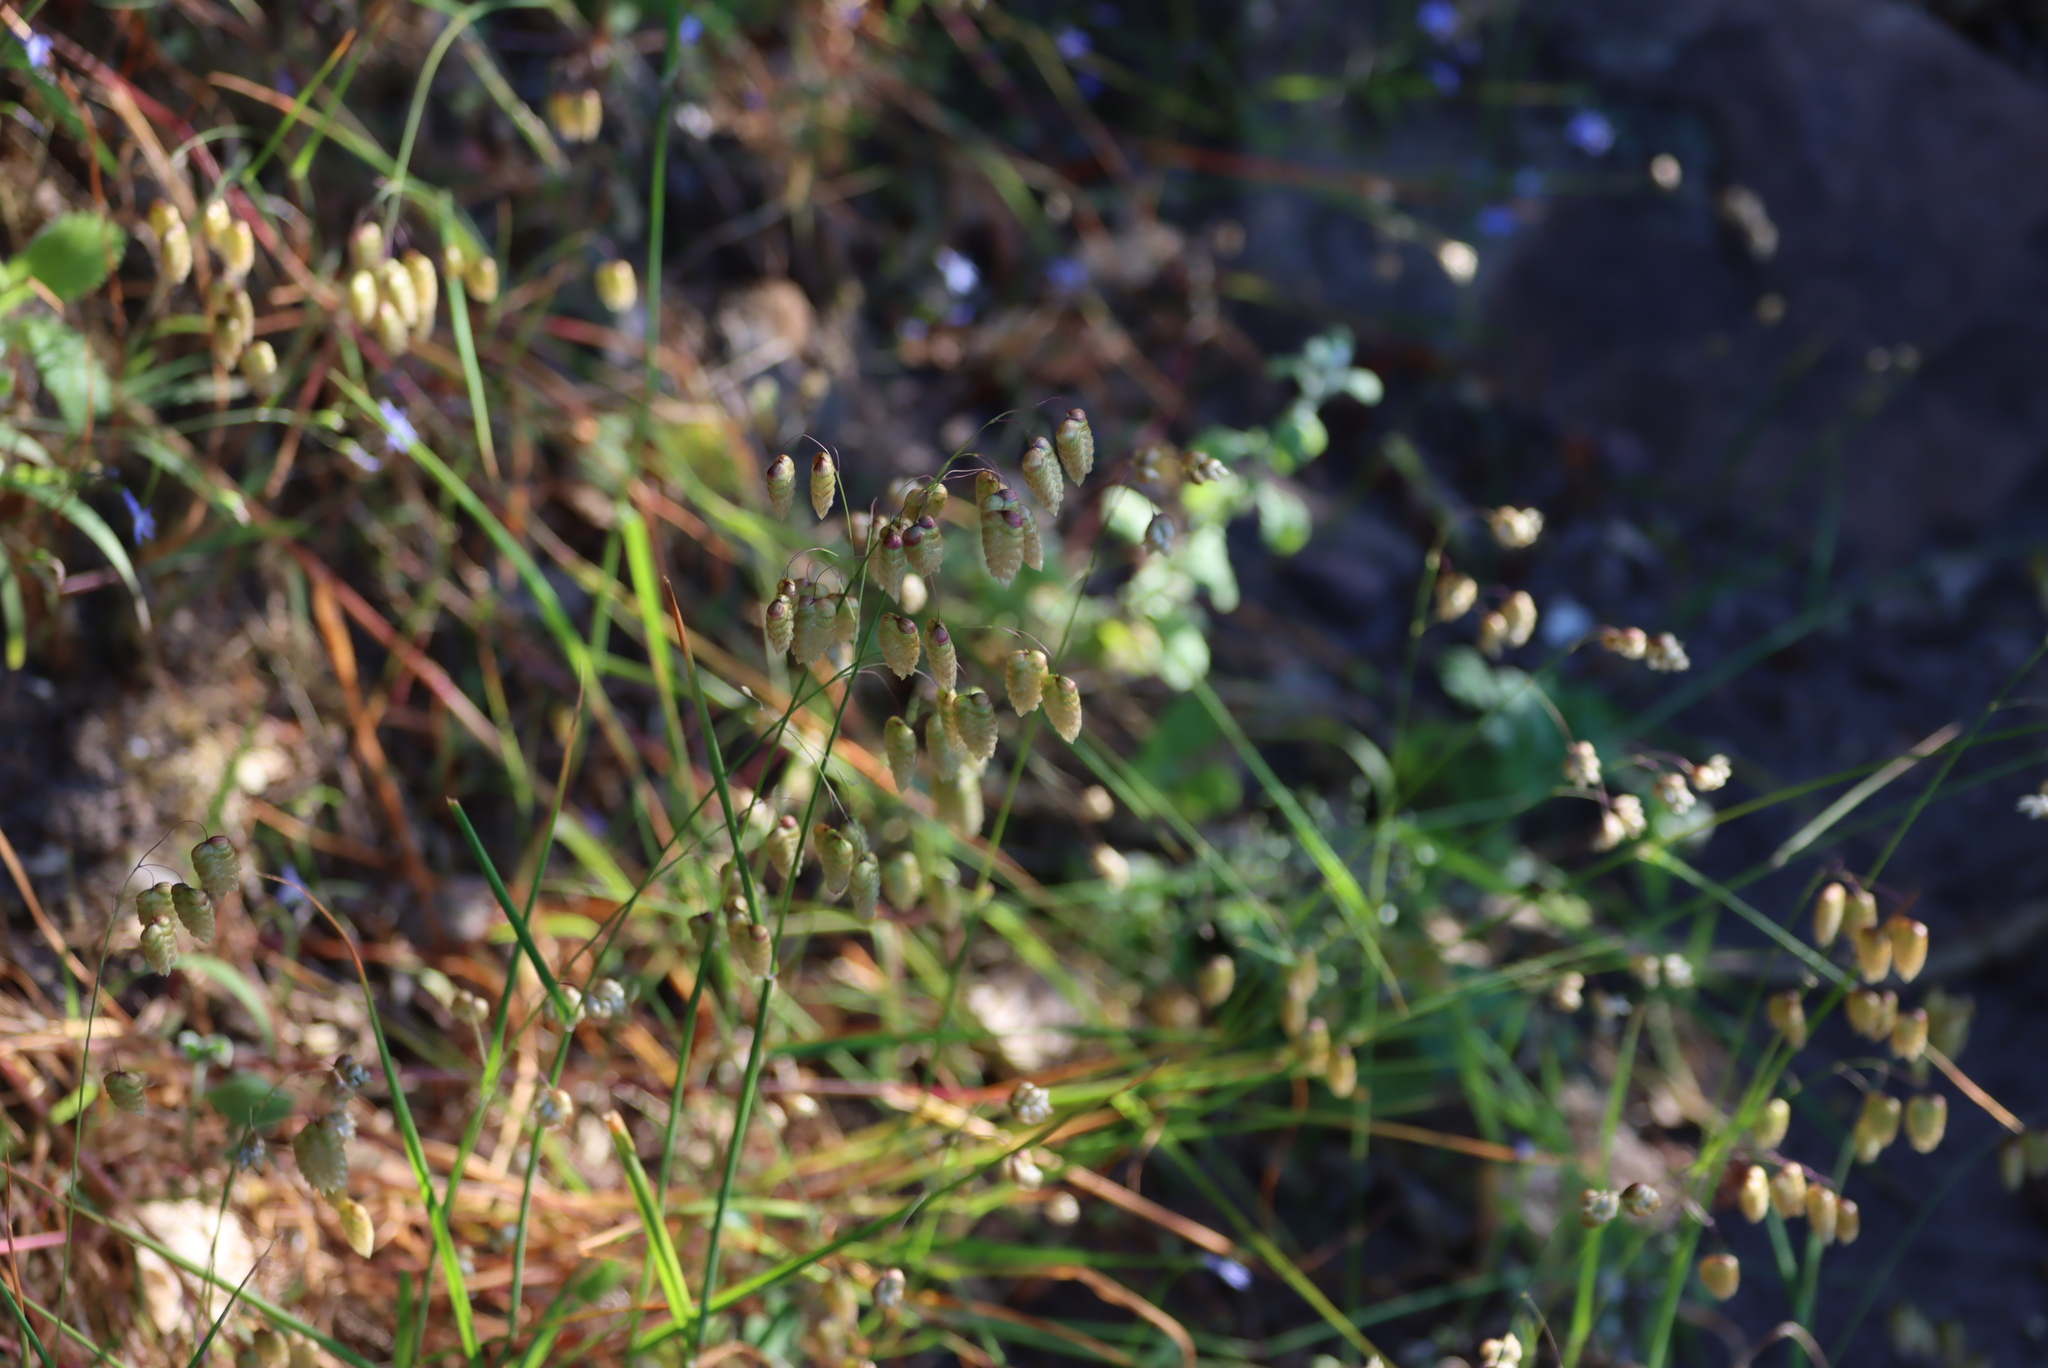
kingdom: Plantae
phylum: Tracheophyta
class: Liliopsida
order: Poales
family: Poaceae
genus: Briza
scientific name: Briza maxima
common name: Big quakinggrass
